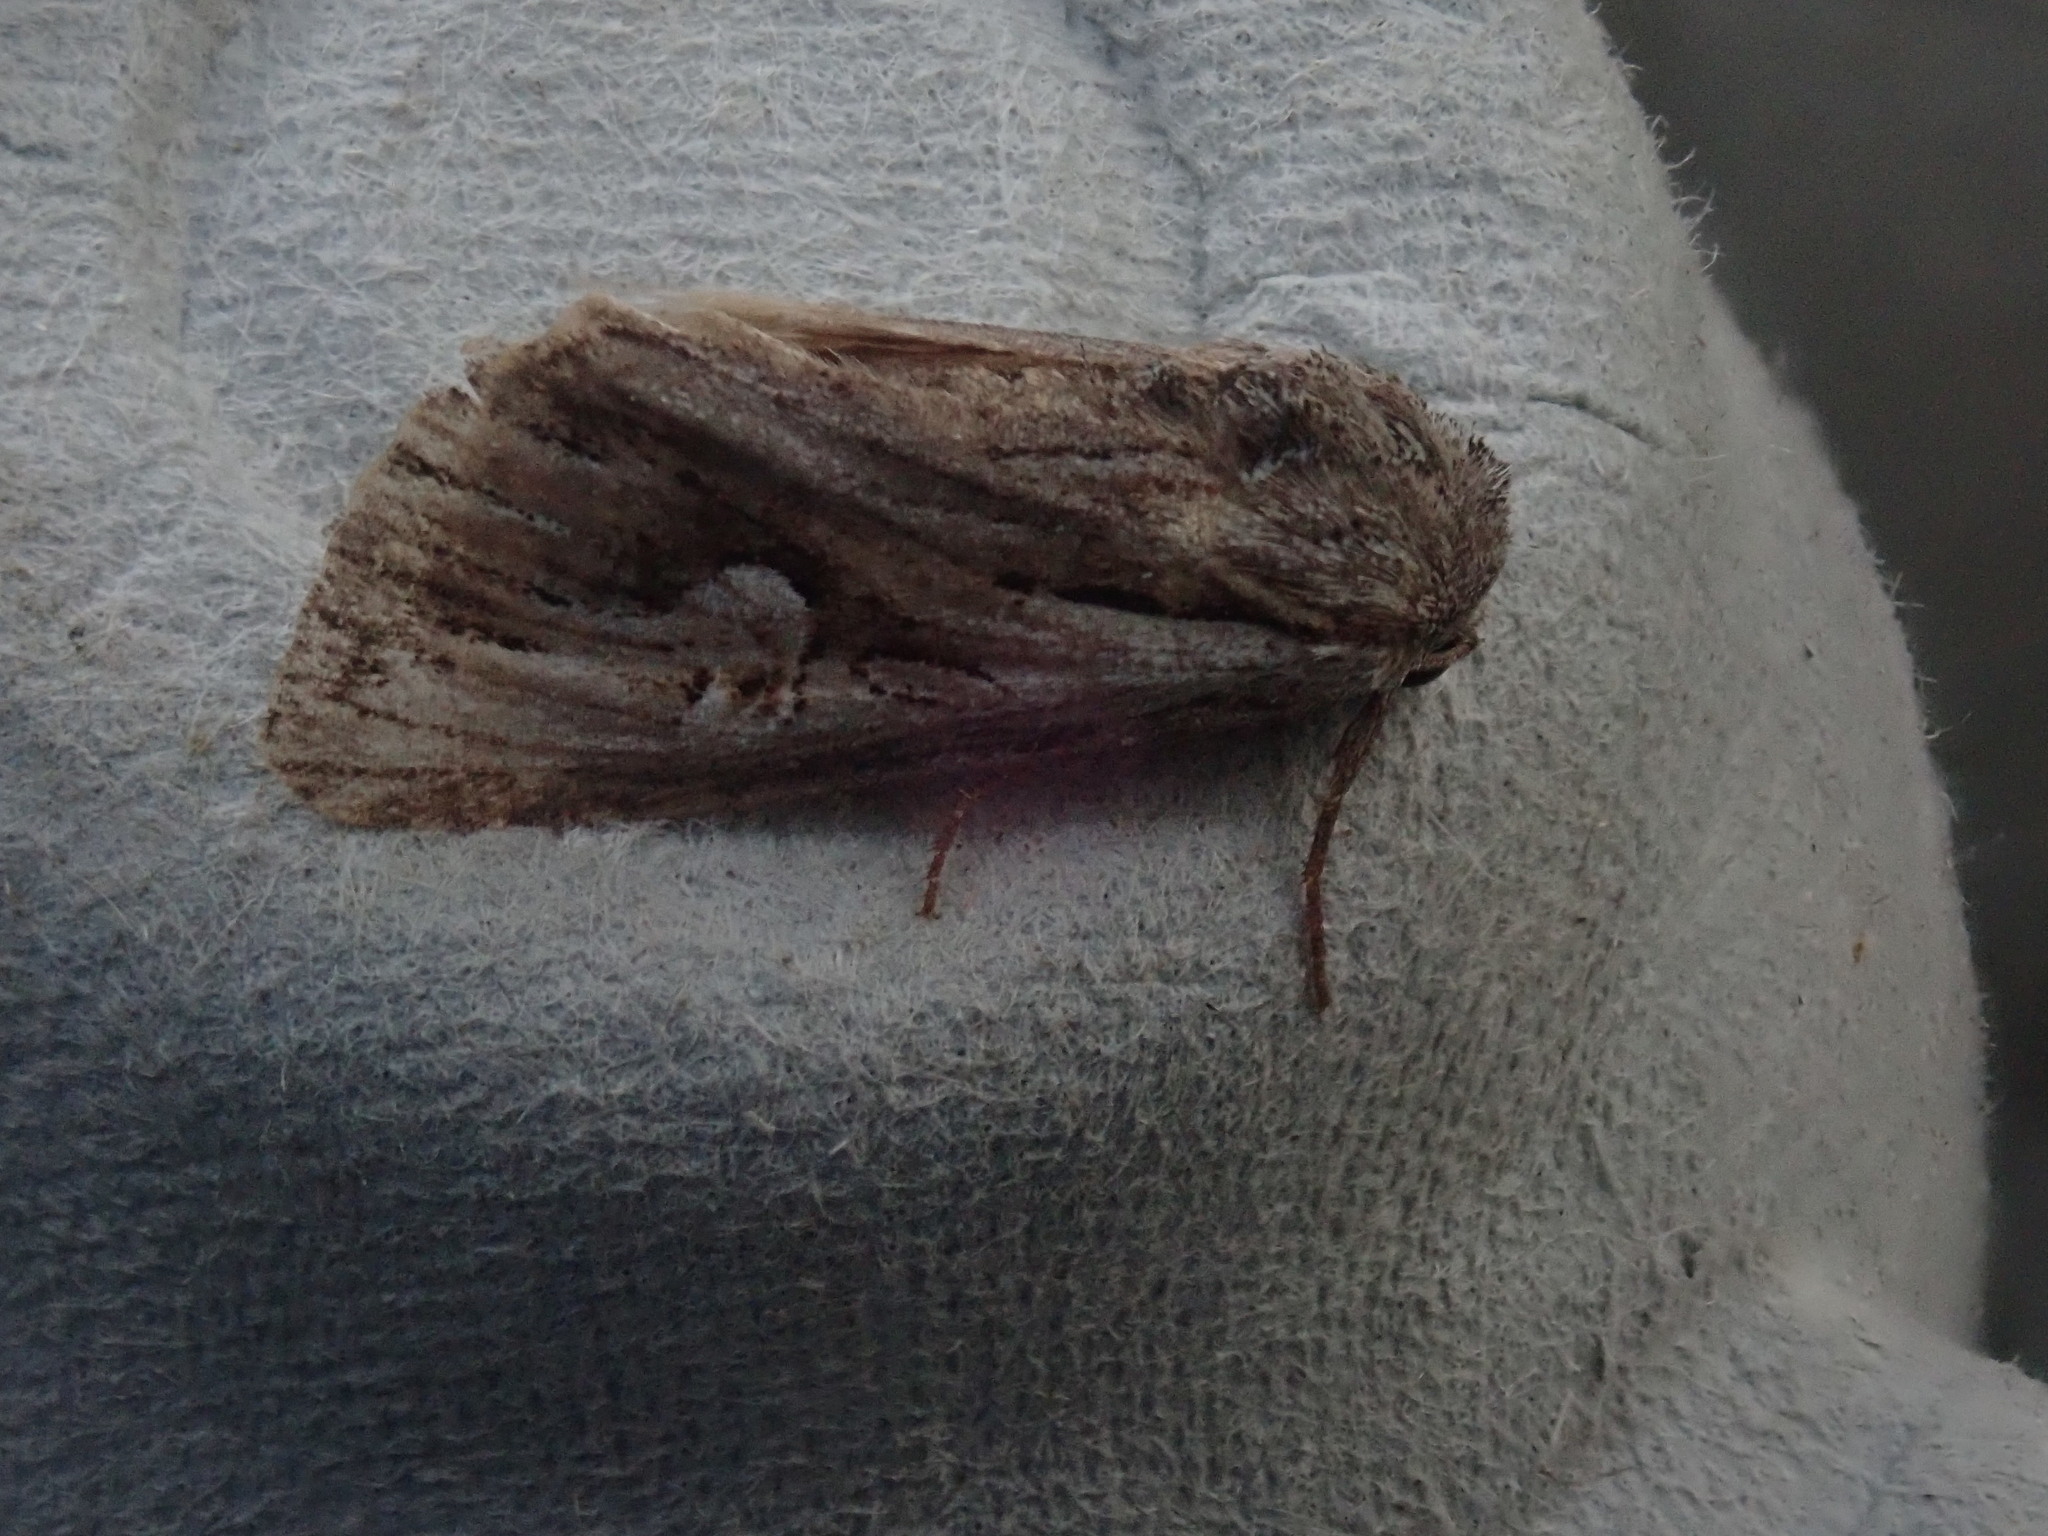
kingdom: Animalia
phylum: Arthropoda
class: Insecta
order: Lepidoptera
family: Noctuidae
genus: Nedra
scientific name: Nedra ramosula
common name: Gray half-spot
